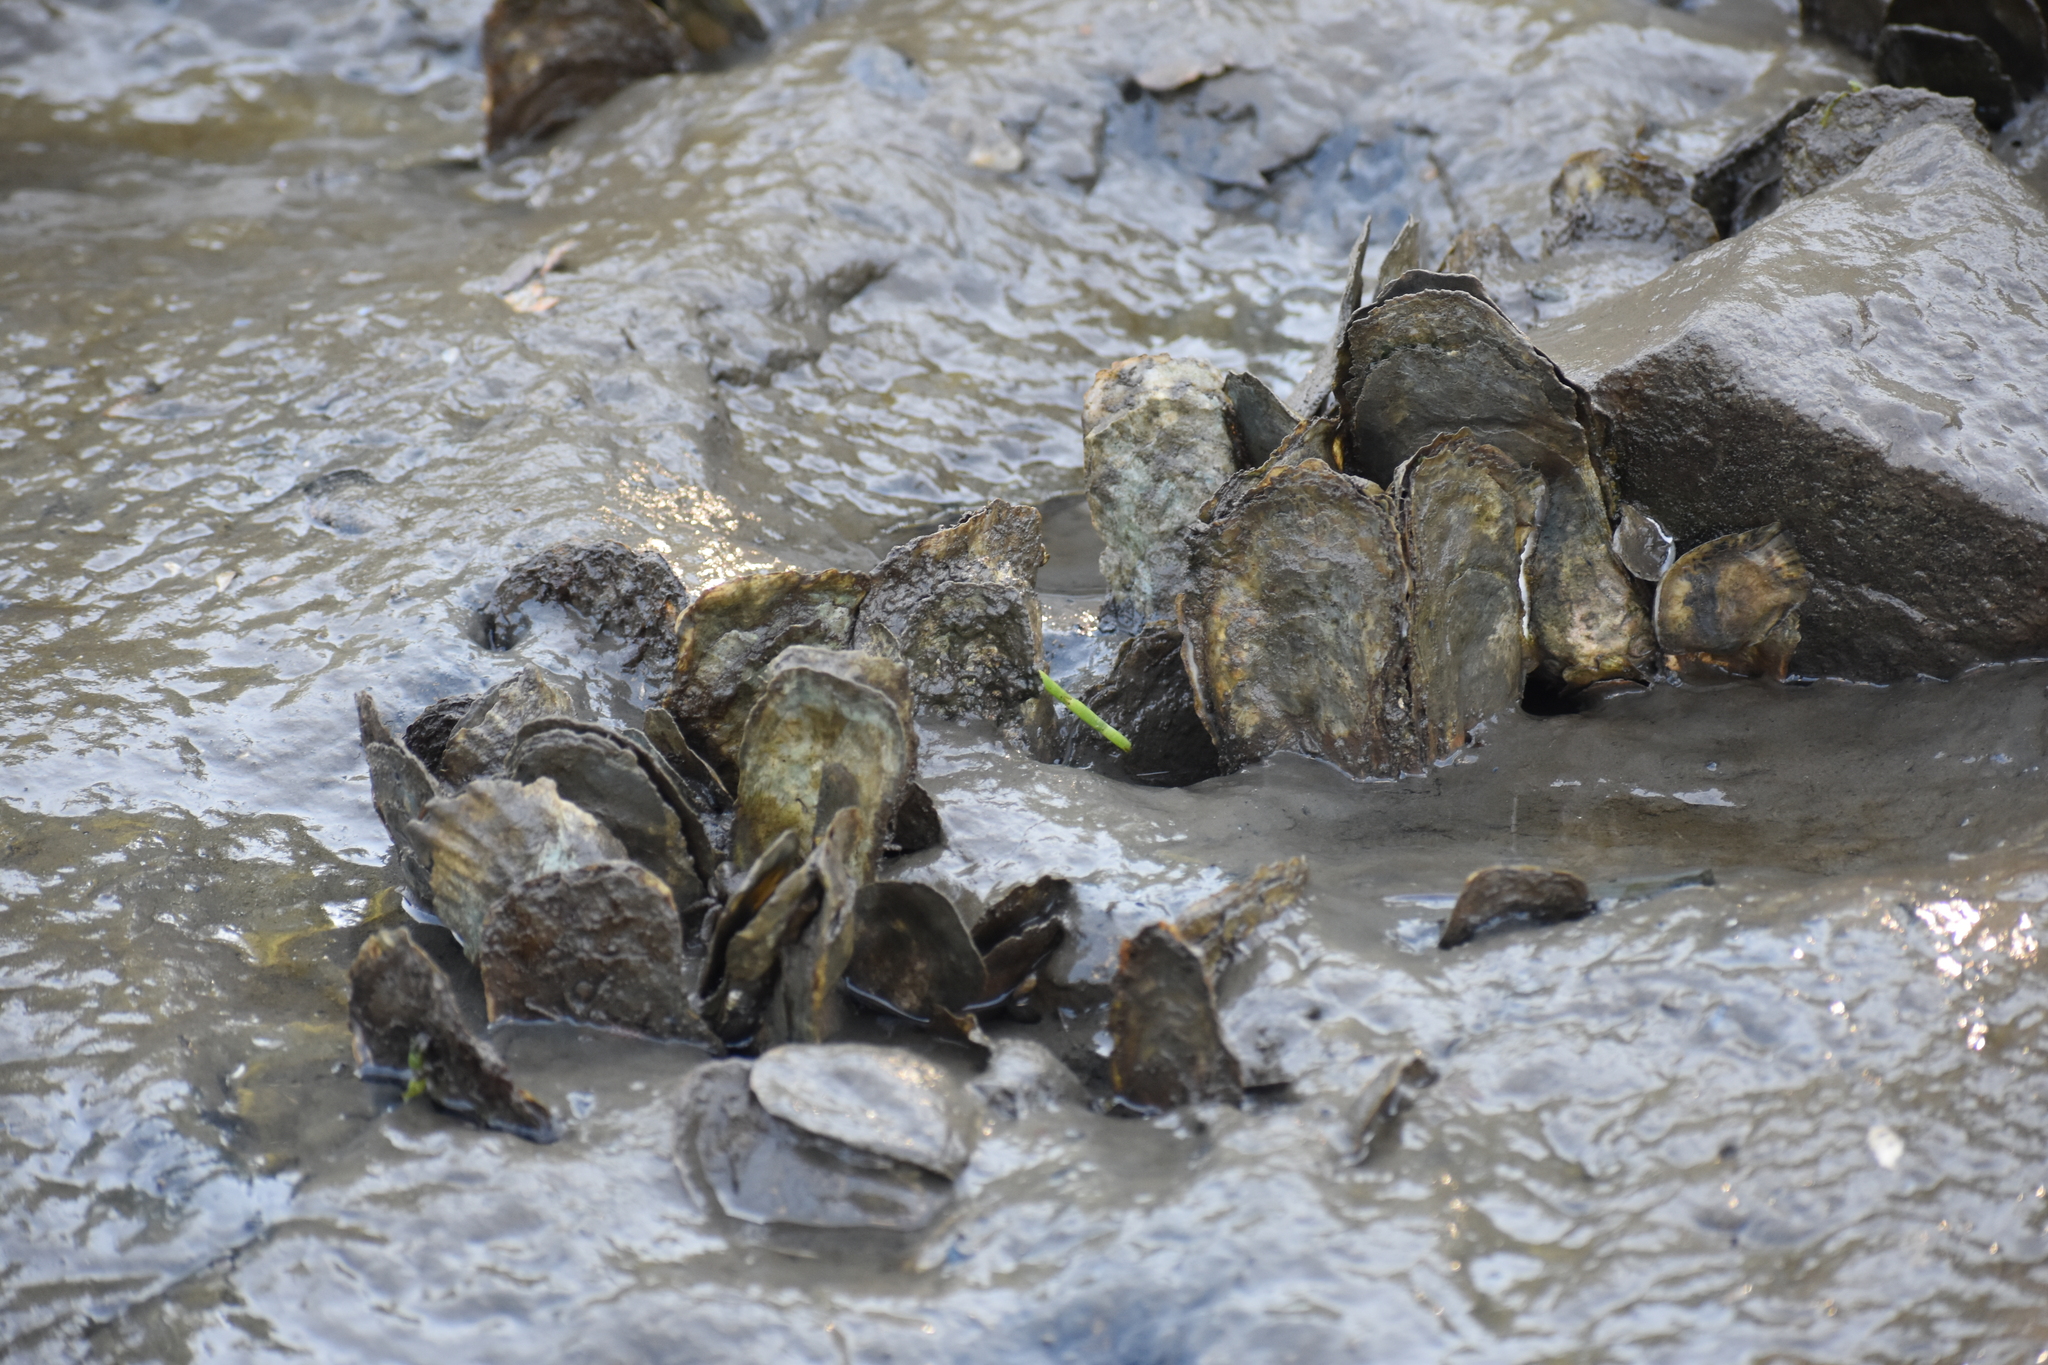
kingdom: Animalia
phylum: Mollusca
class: Bivalvia
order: Ostreida
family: Ostreidae
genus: Crassostrea
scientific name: Crassostrea virginica
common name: American oyster
